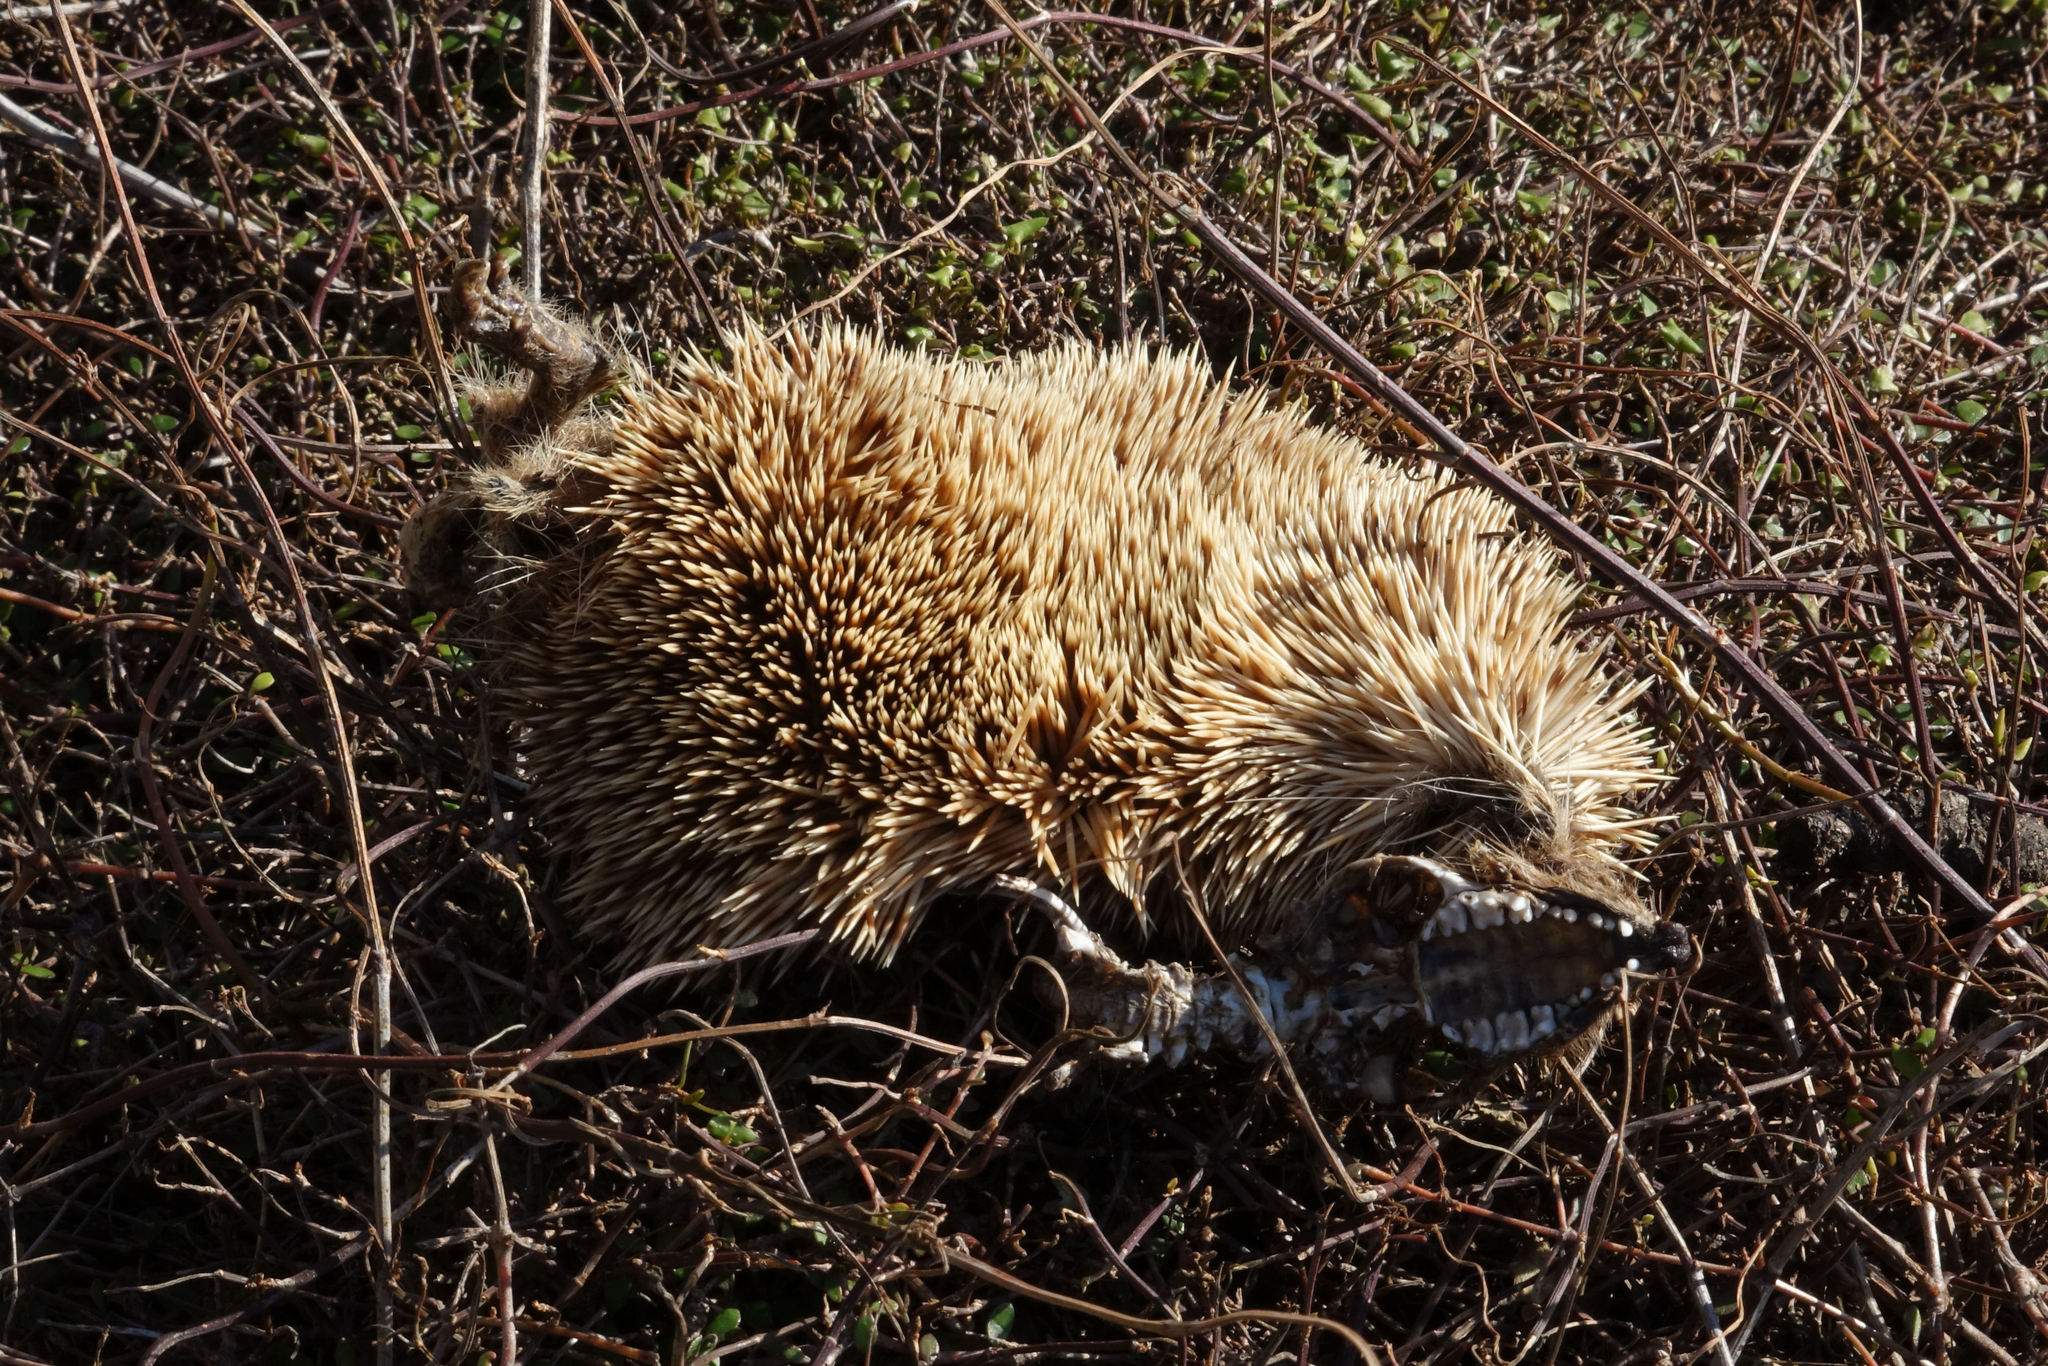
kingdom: Animalia
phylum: Chordata
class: Mammalia
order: Erinaceomorpha
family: Erinaceidae
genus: Erinaceus
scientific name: Erinaceus europaeus
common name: West european hedgehog
